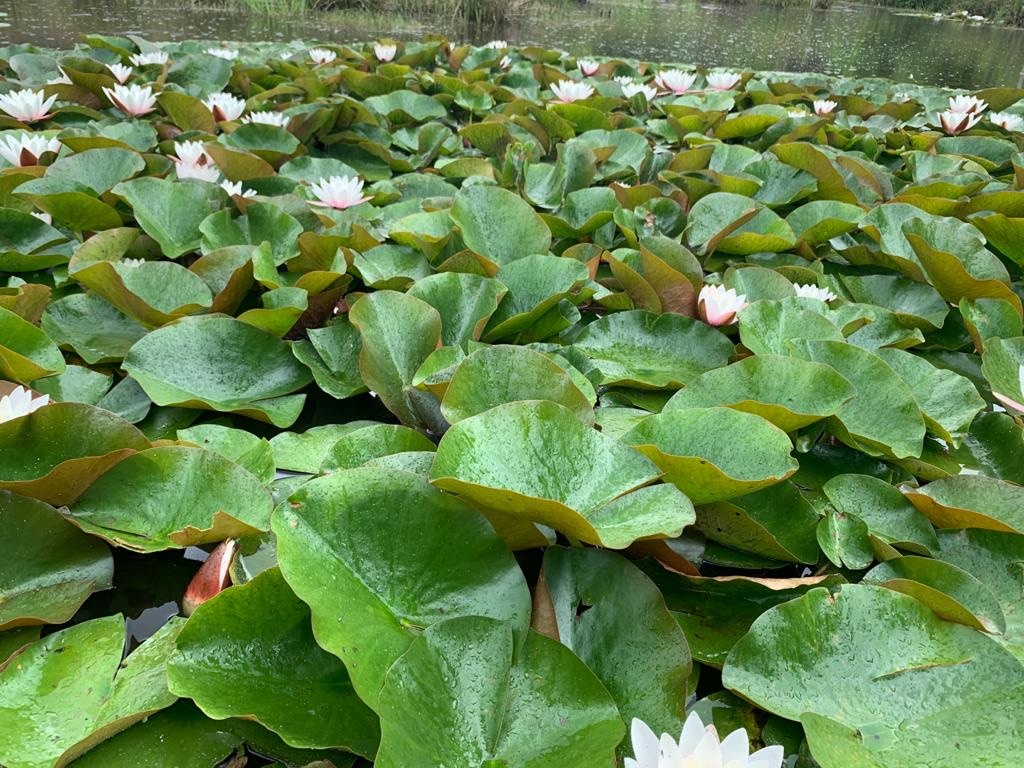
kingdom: Plantae
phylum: Tracheophyta
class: Magnoliopsida
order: Nymphaeales
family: Nymphaeaceae
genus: Nymphaea
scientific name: Nymphaea alba
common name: White water-lily
